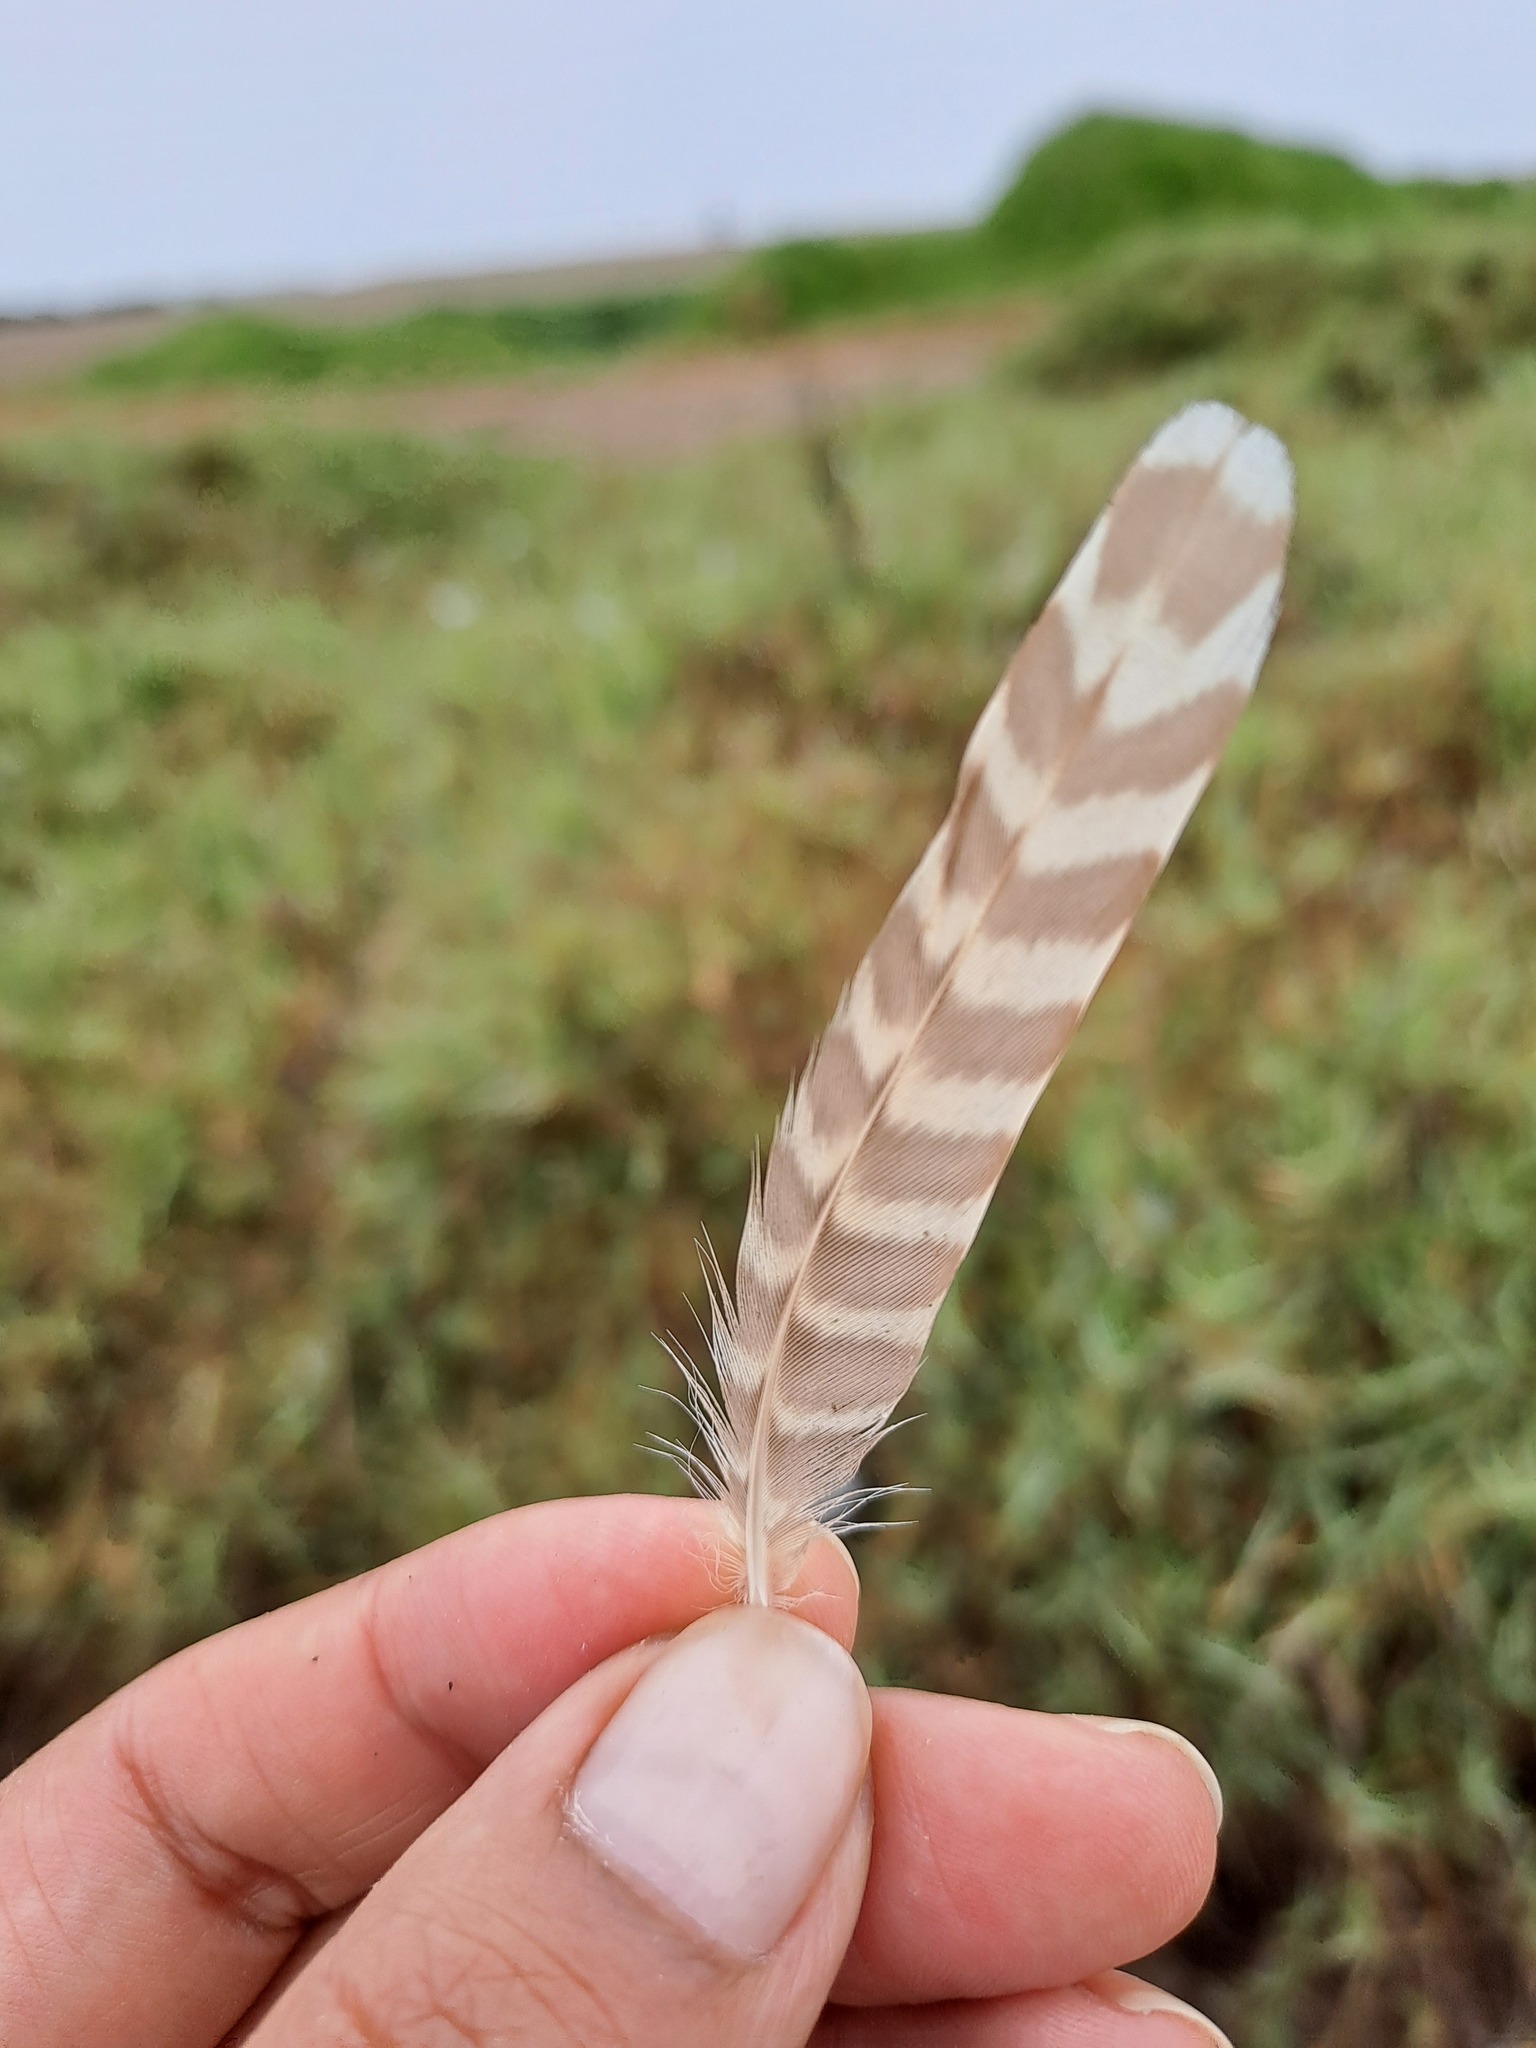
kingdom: Animalia
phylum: Chordata
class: Aves
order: Charadriiformes
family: Scolopacidae
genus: Numenius
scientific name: Numenius phaeopus
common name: Whimbrel
